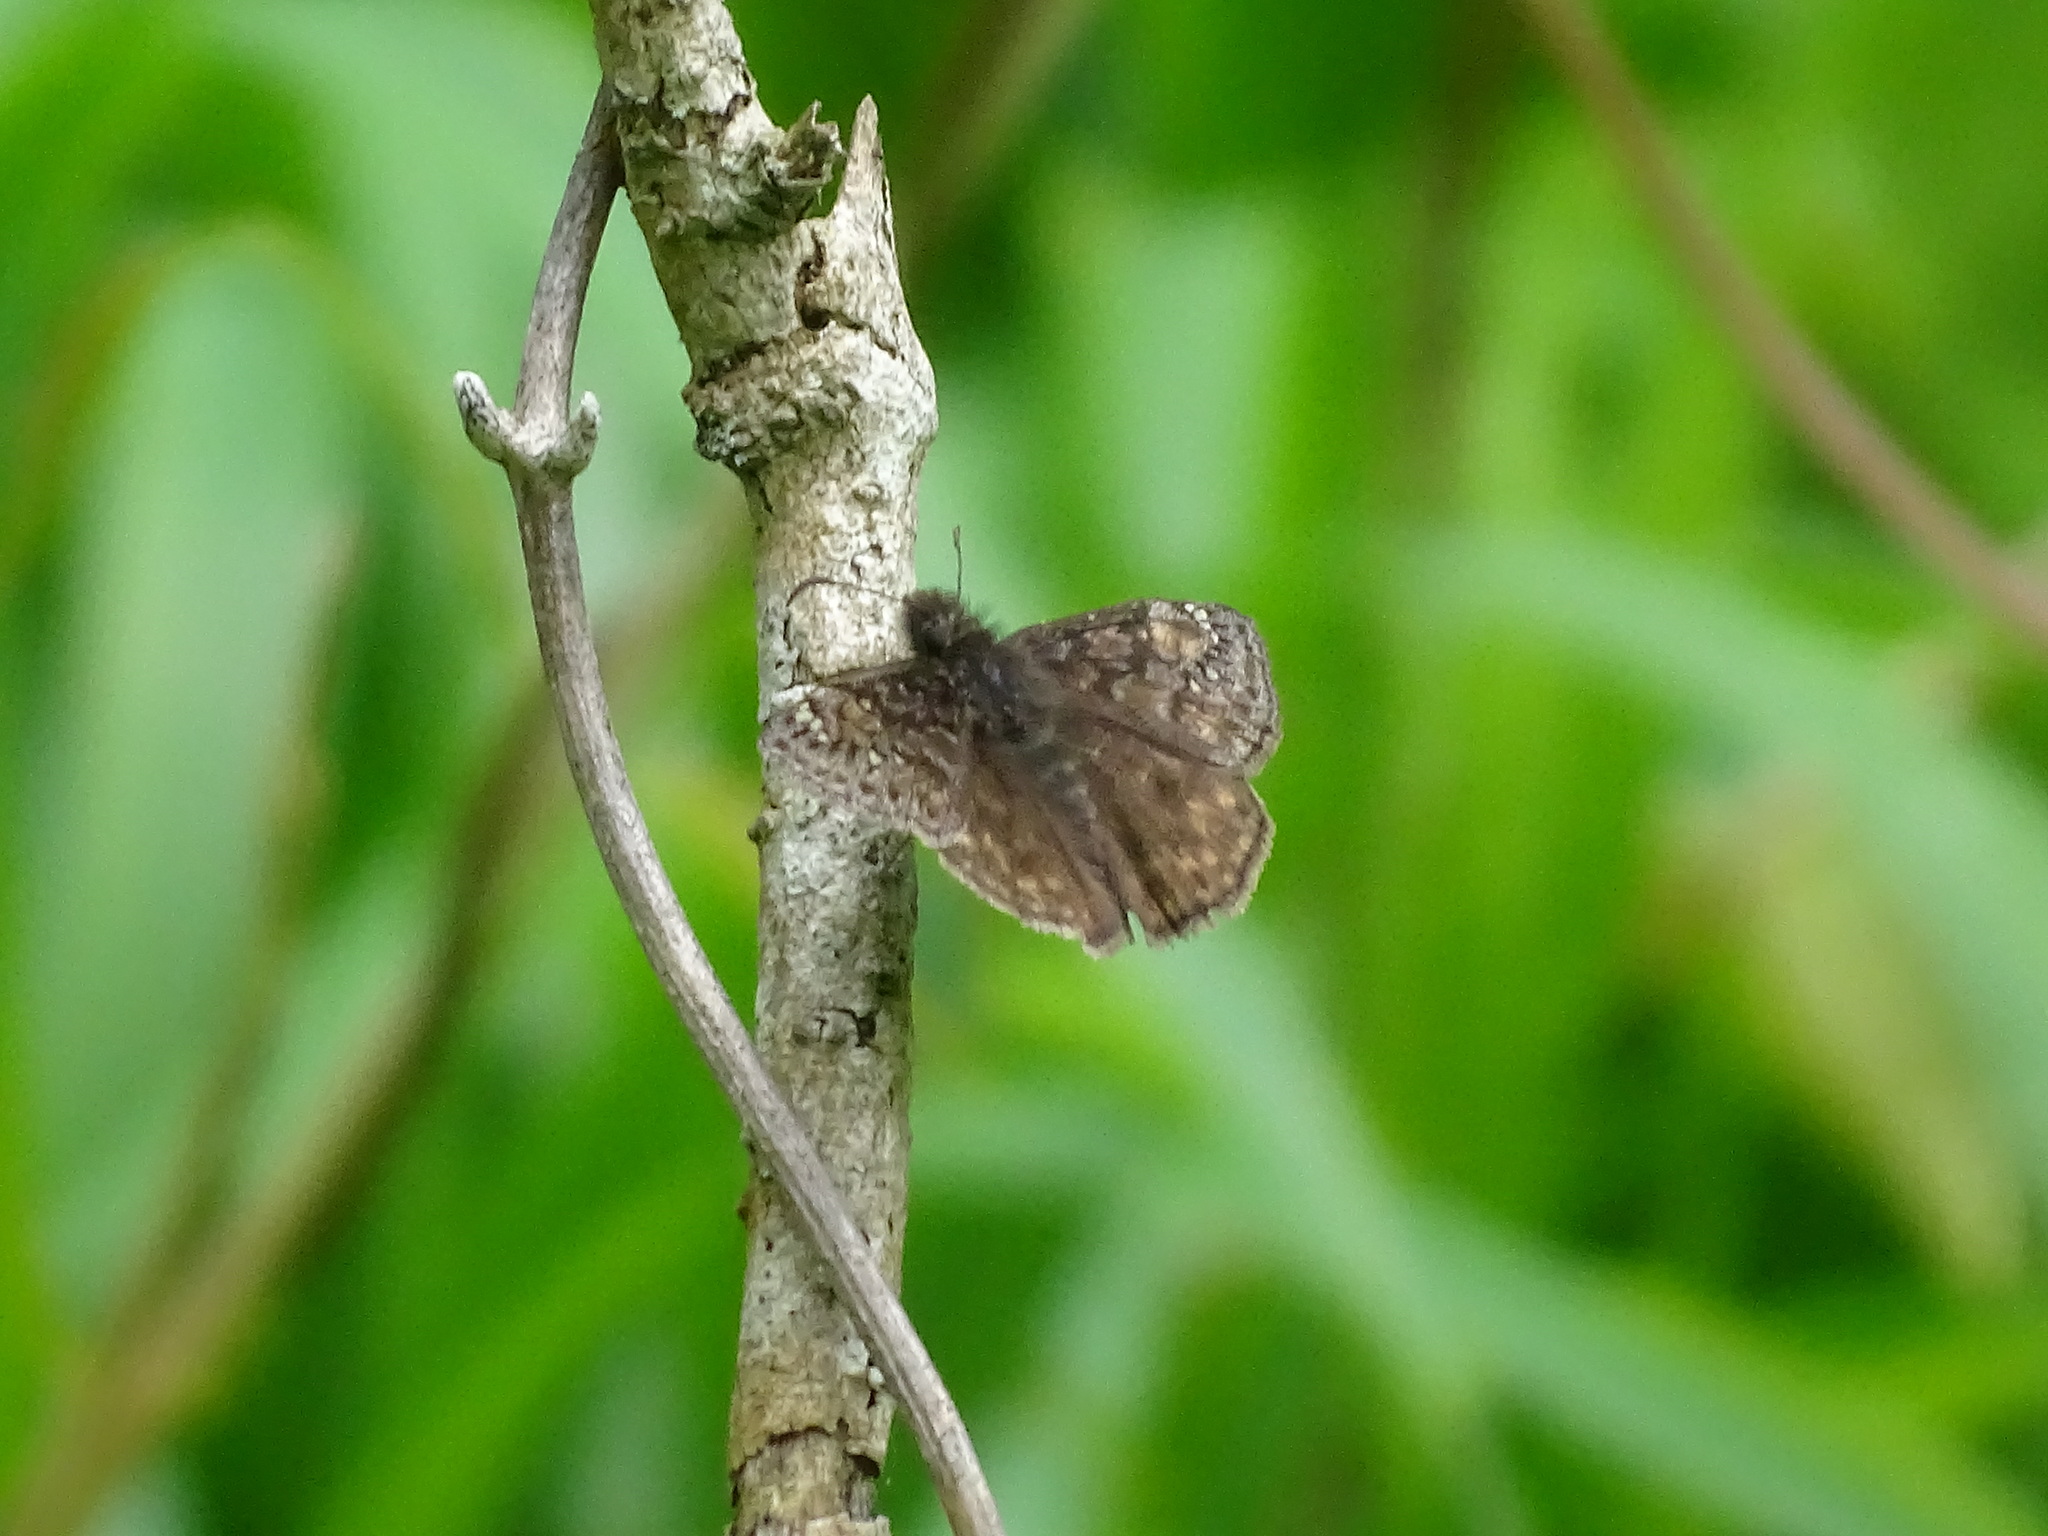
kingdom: Animalia
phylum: Arthropoda
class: Insecta
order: Lepidoptera
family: Hesperiidae
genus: Erynnis
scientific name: Erynnis juvenalis
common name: Juvenal's duskywing
